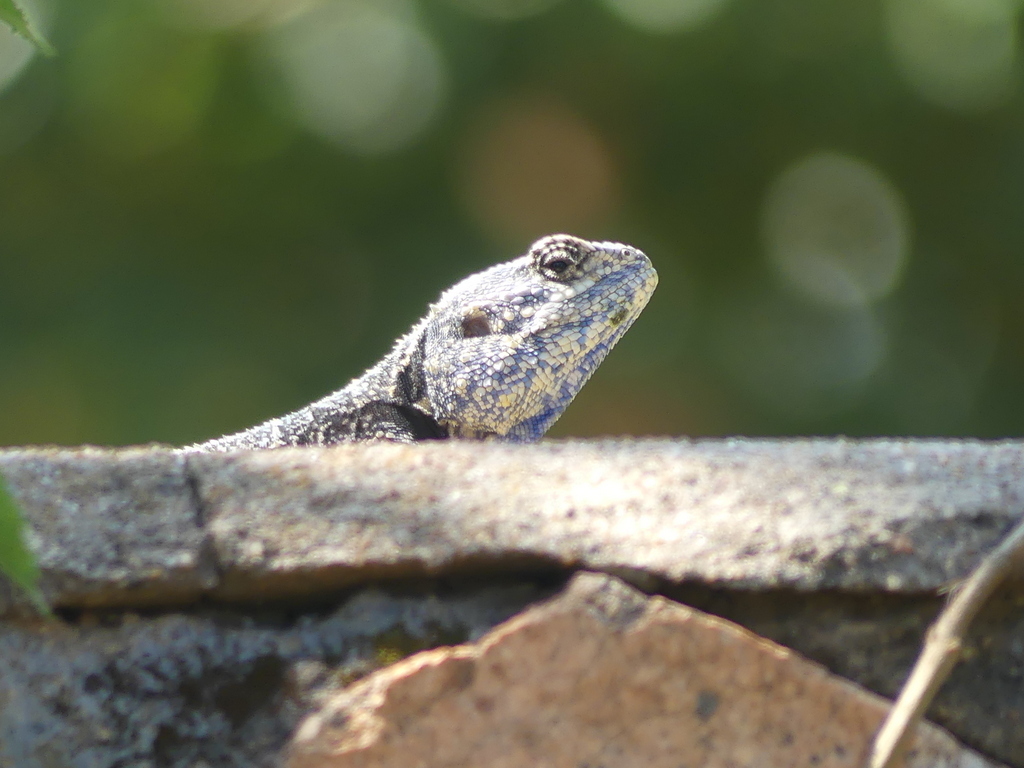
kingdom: Animalia
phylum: Chordata
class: Squamata
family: Agamidae
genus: Acanthocercus
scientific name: Acanthocercus atricollis
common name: Southern tree agama
